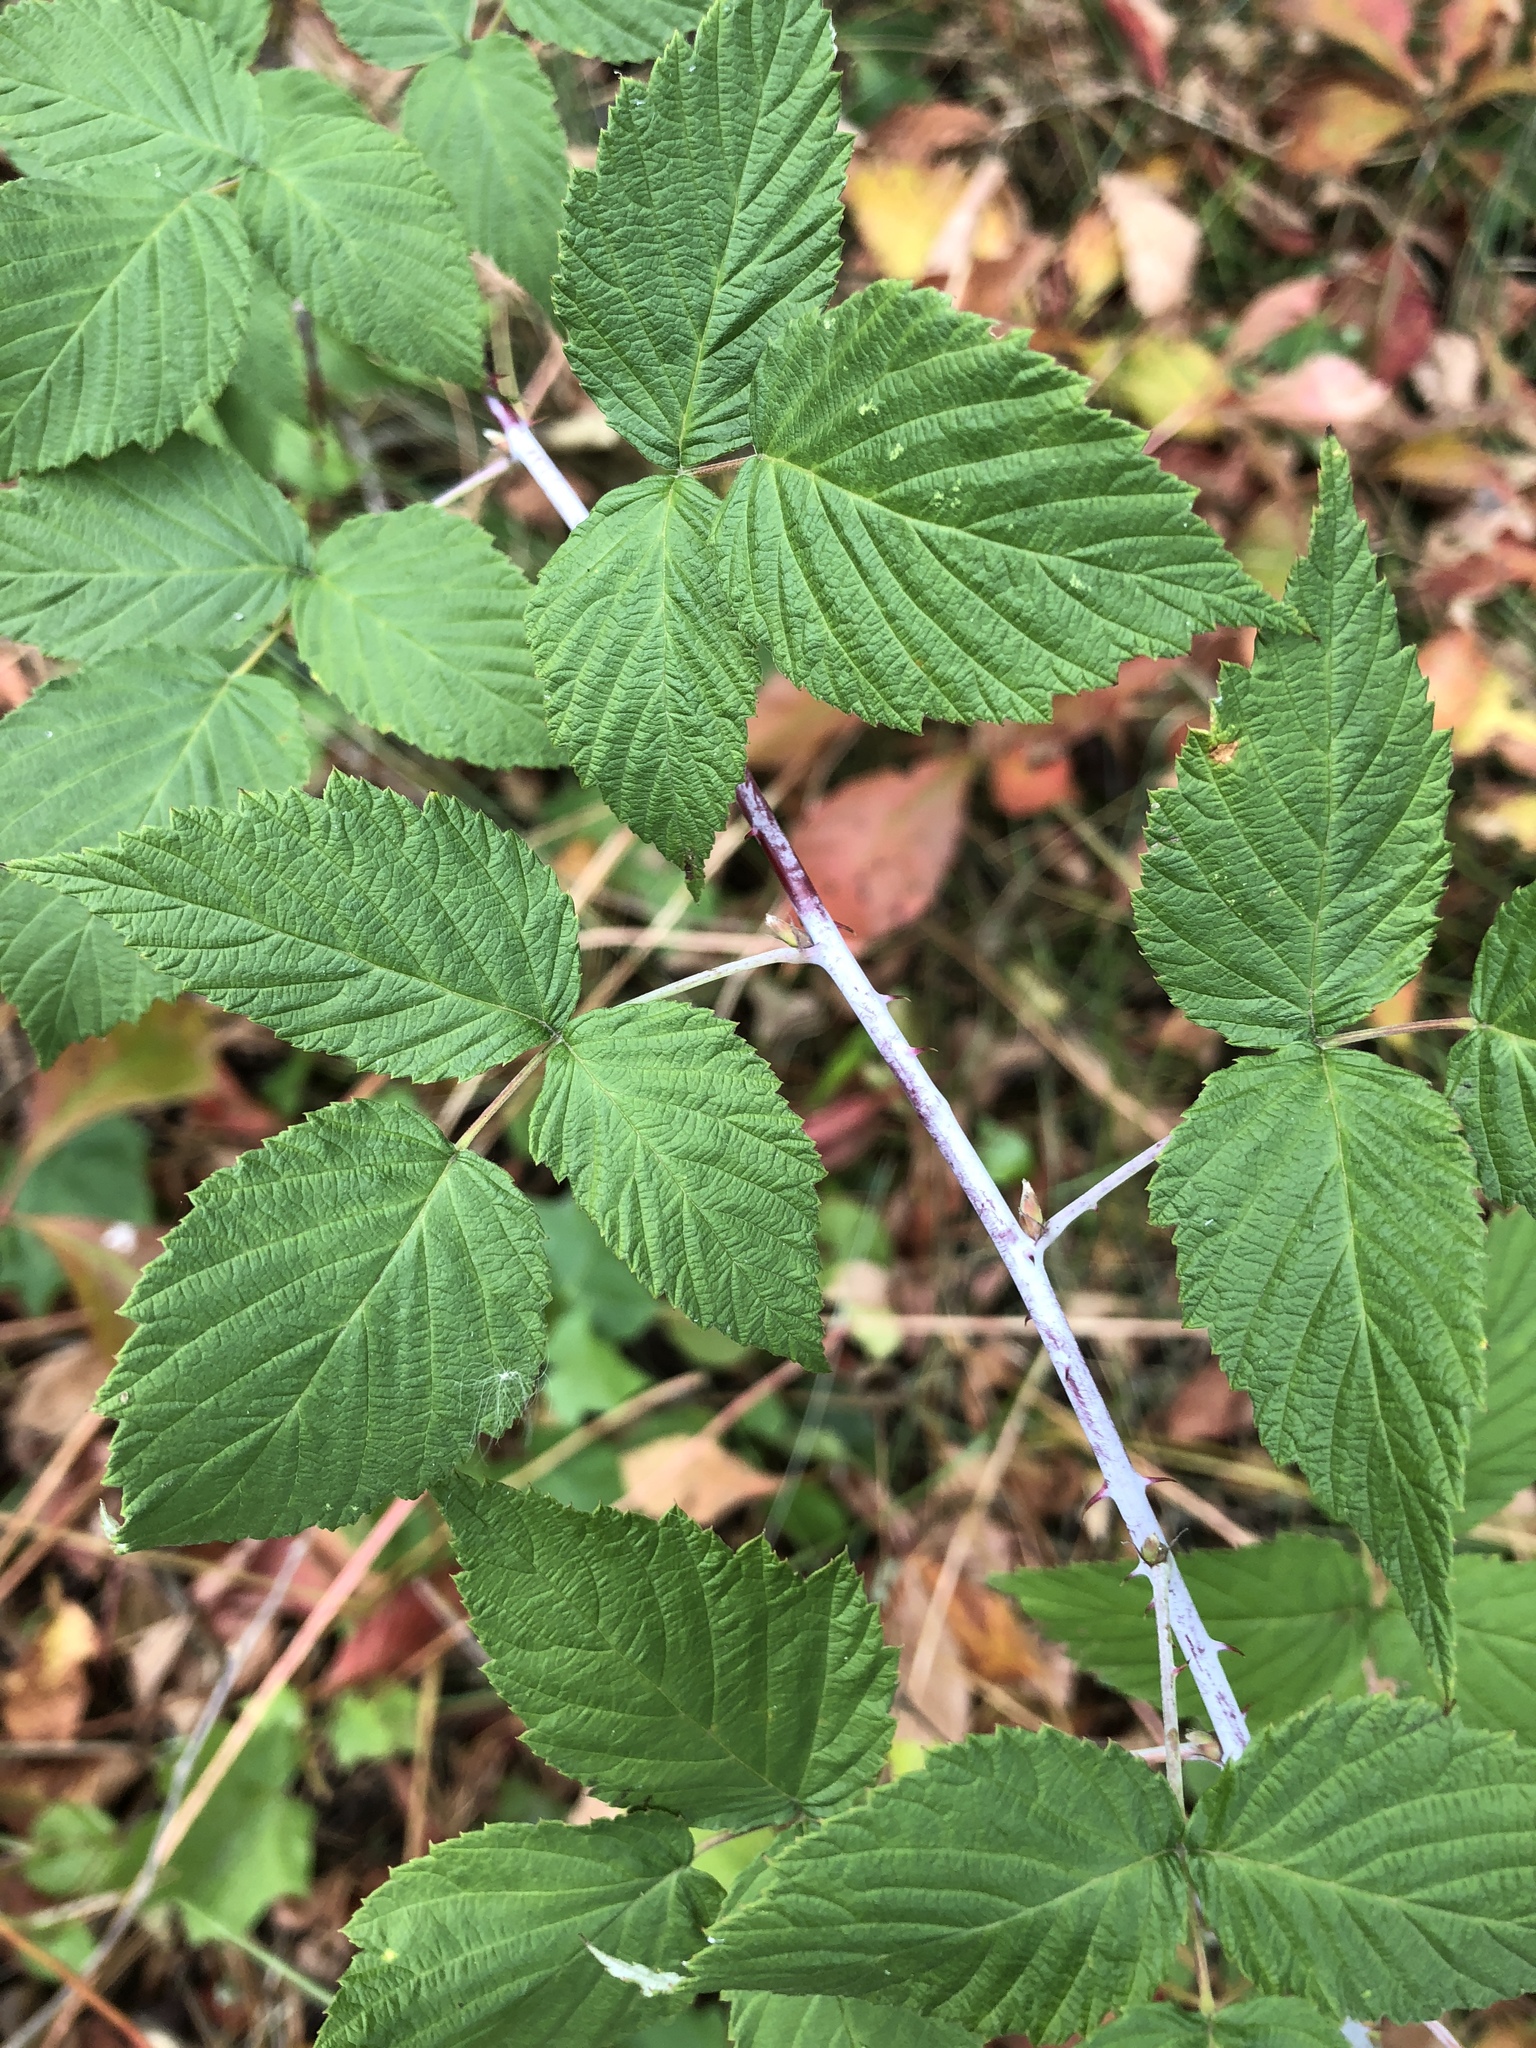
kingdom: Plantae
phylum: Tracheophyta
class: Magnoliopsida
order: Rosales
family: Rosaceae
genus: Rubus
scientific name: Rubus occidentalis
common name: Black raspberry
